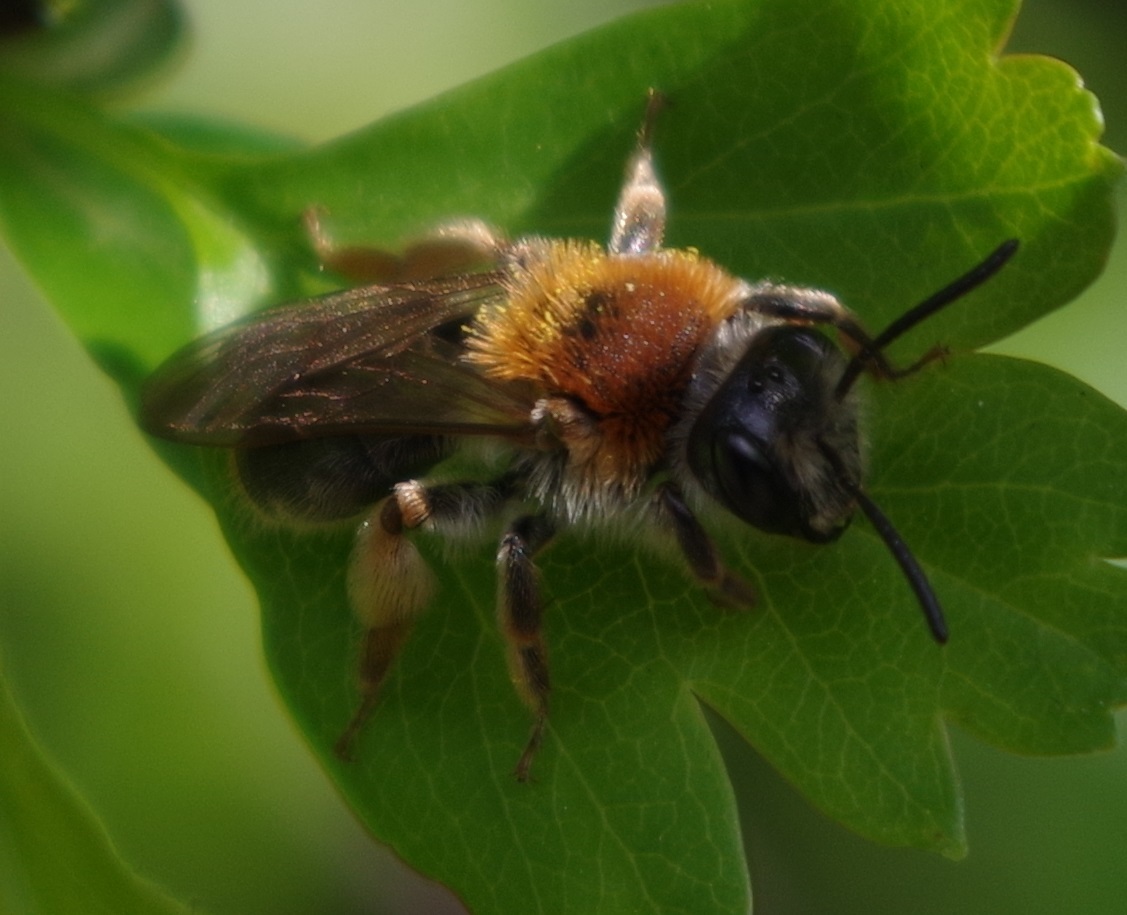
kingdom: Animalia
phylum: Arthropoda
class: Insecta
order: Hymenoptera
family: Andrenidae
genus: Andrena
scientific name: Andrena haemorrhoa
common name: Early mining bee
